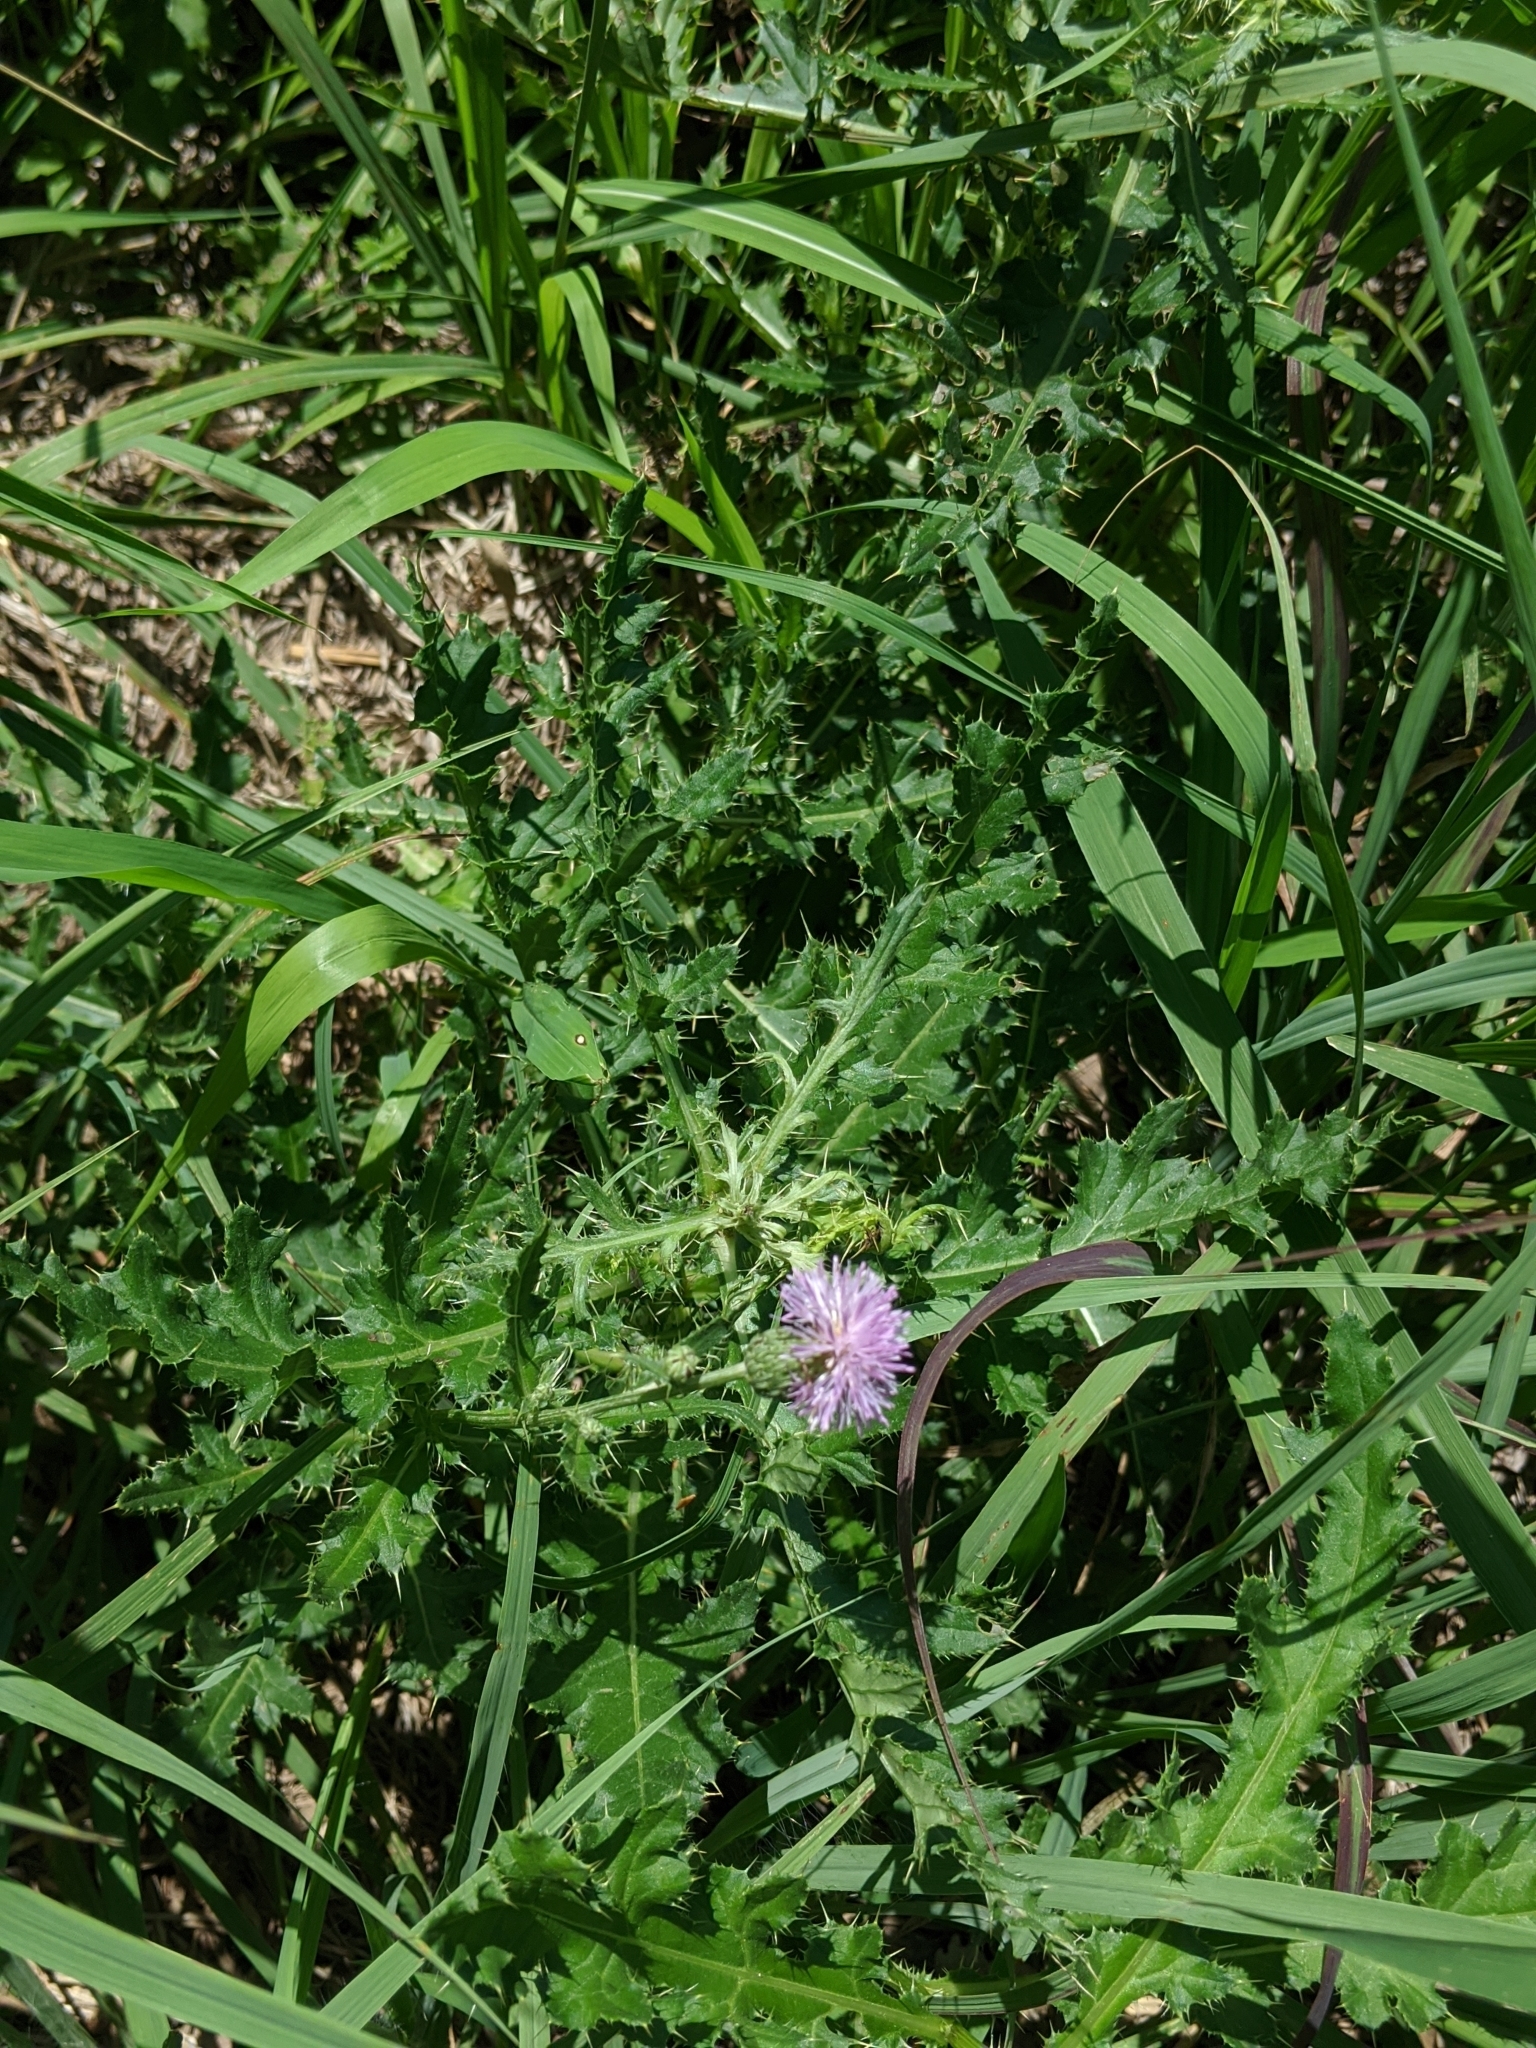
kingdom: Plantae
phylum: Tracheophyta
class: Magnoliopsida
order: Asterales
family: Asteraceae
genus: Cirsium
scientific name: Cirsium arvense
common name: Creeping thistle
